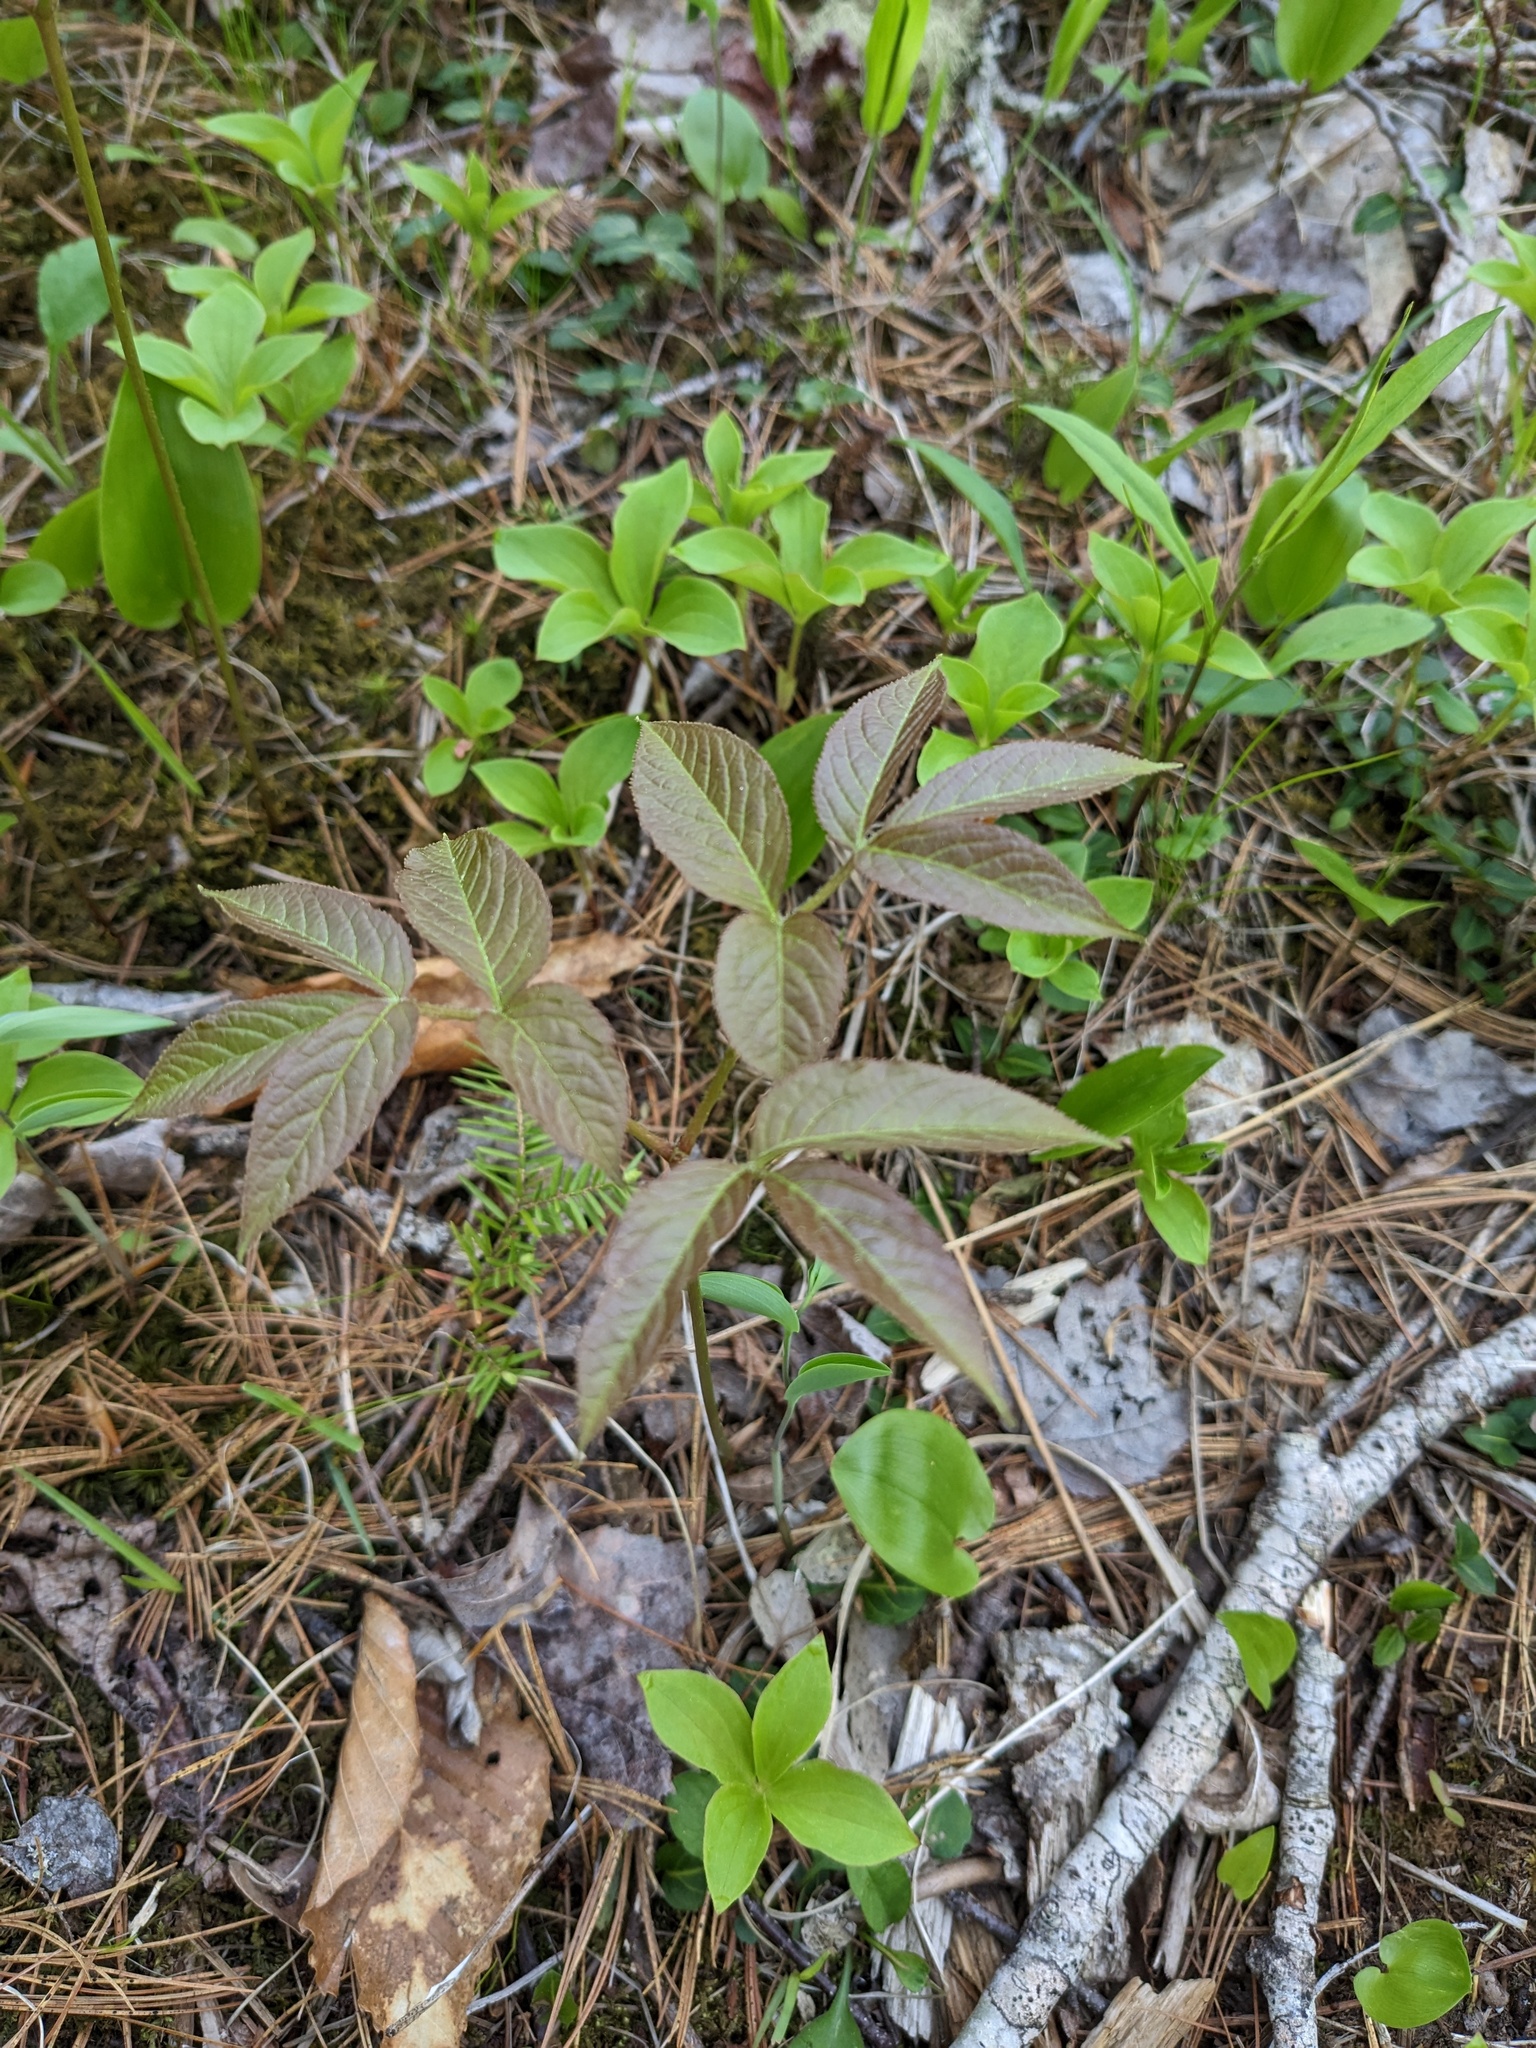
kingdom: Plantae
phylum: Tracheophyta
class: Magnoliopsida
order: Apiales
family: Araliaceae
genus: Aralia
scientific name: Aralia nudicaulis
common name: Wild sarsaparilla
